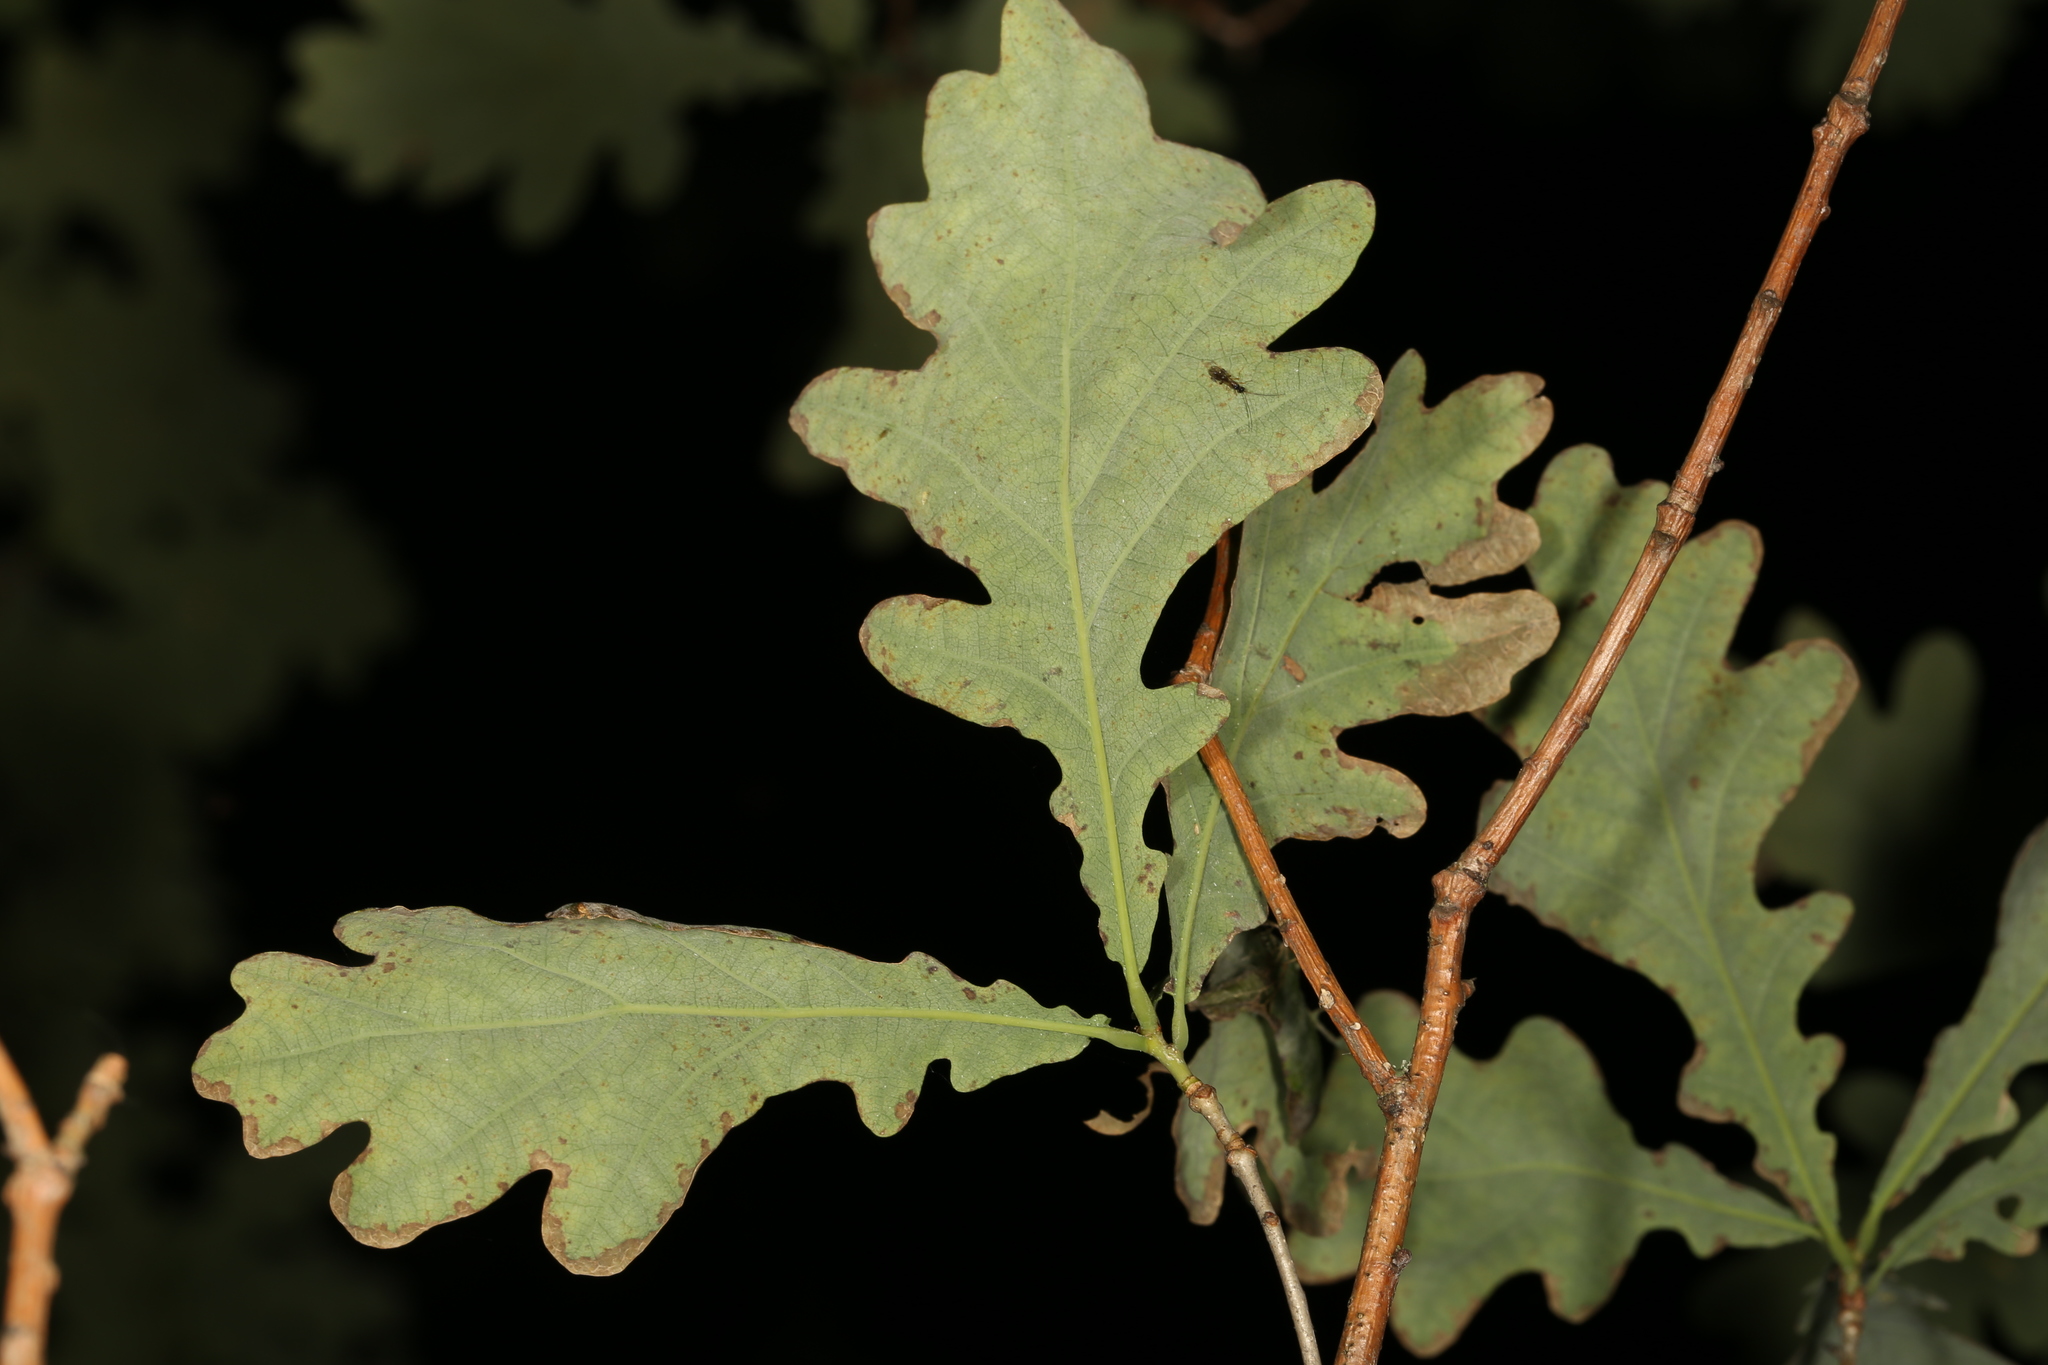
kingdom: Plantae
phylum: Tracheophyta
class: Magnoliopsida
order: Fagales
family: Fagaceae
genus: Quercus
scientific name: Quercus robur
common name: Pedunculate oak
